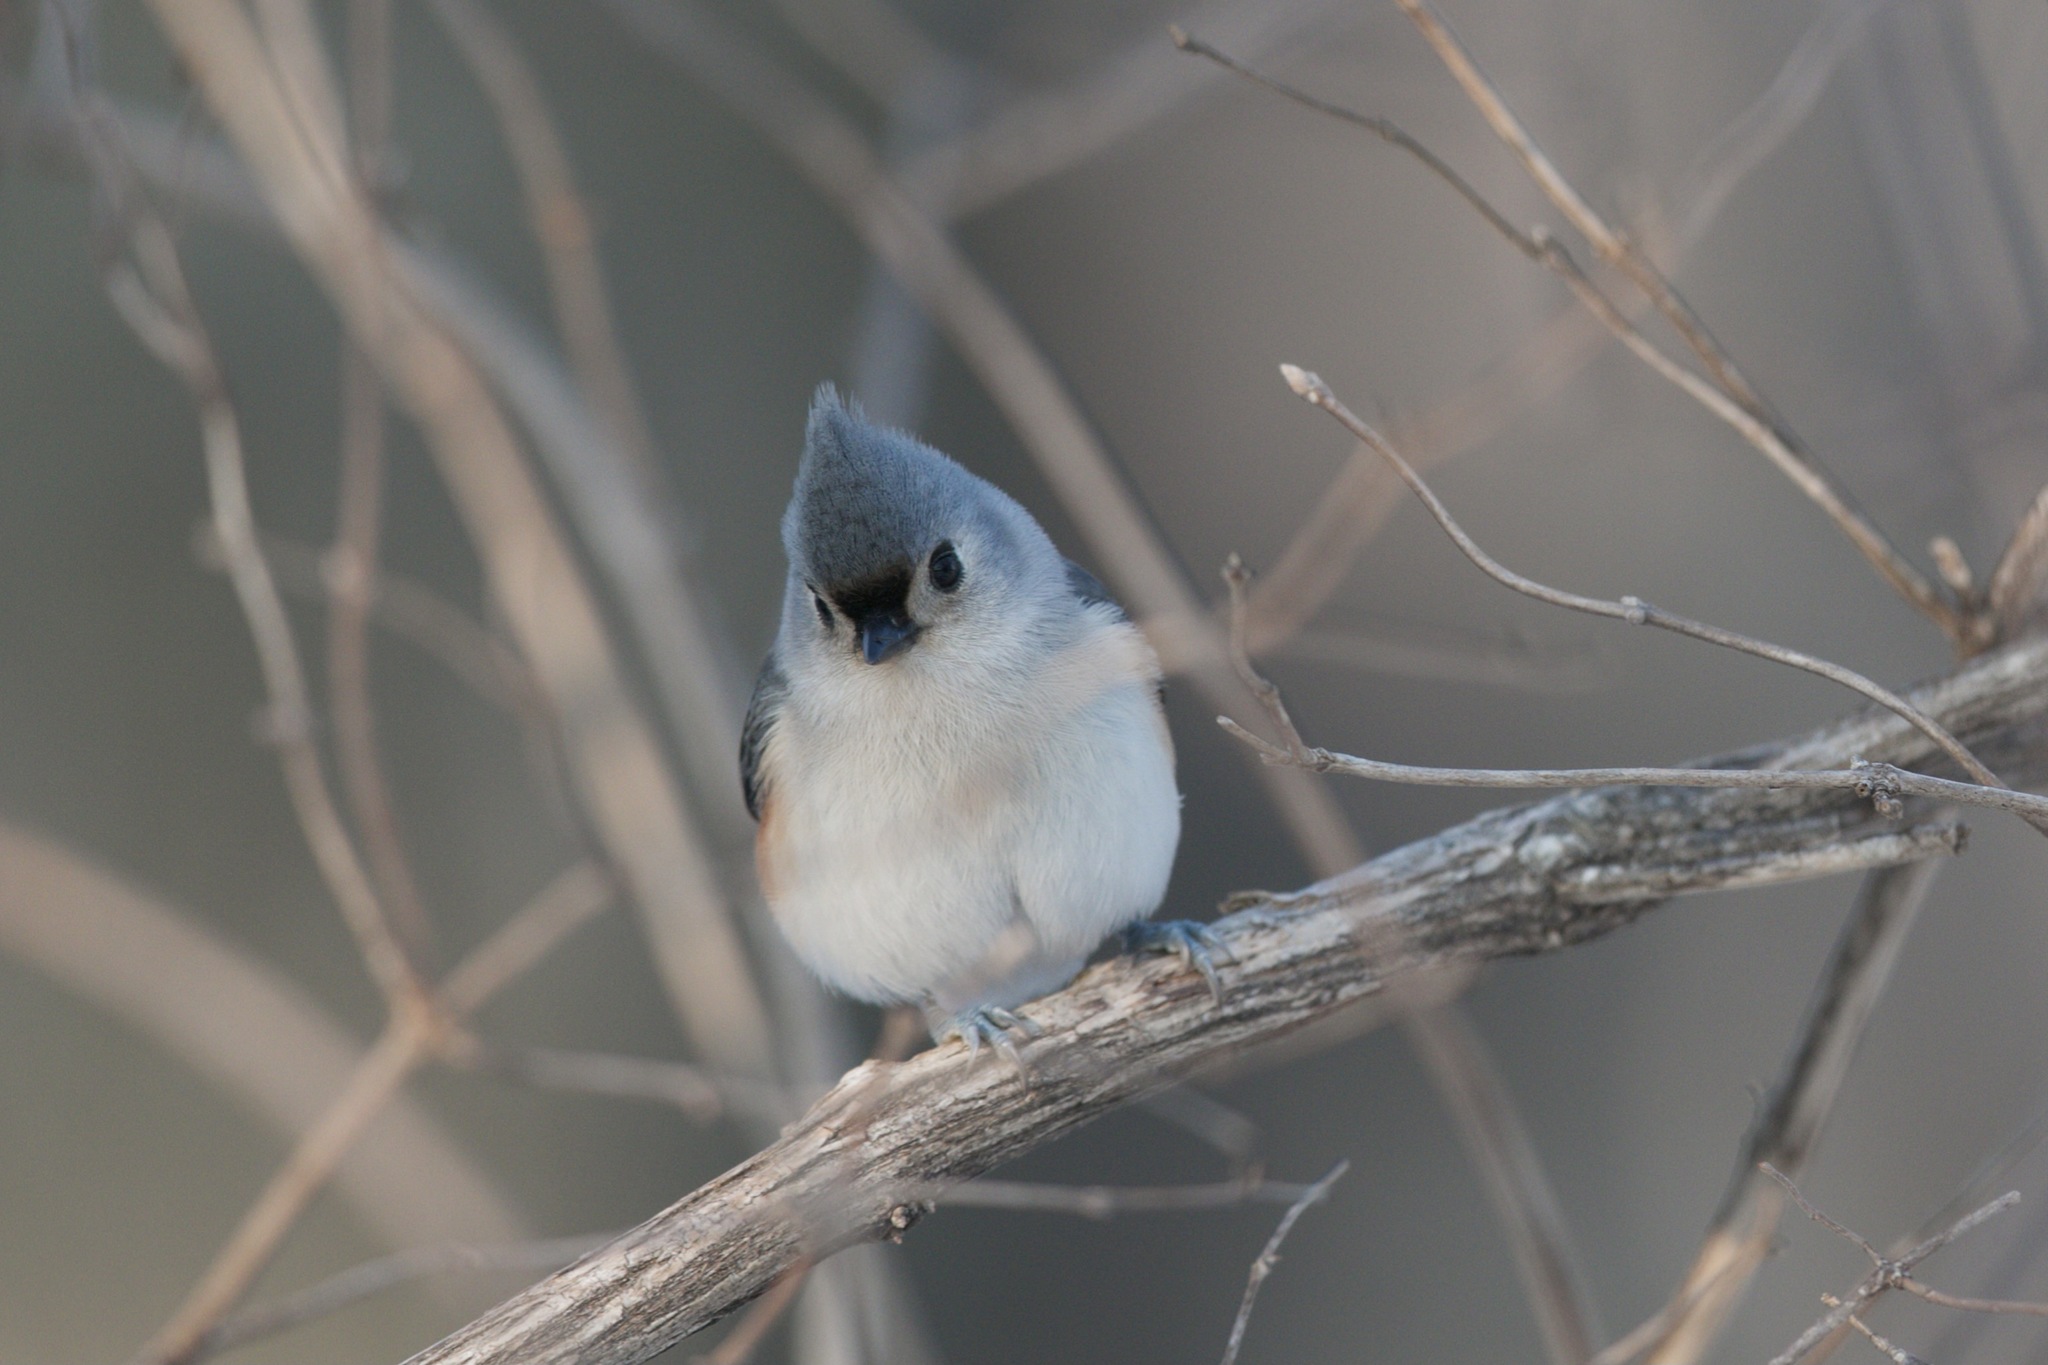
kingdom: Animalia
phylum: Chordata
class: Aves
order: Passeriformes
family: Paridae
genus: Baeolophus
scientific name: Baeolophus bicolor
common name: Tufted titmouse
